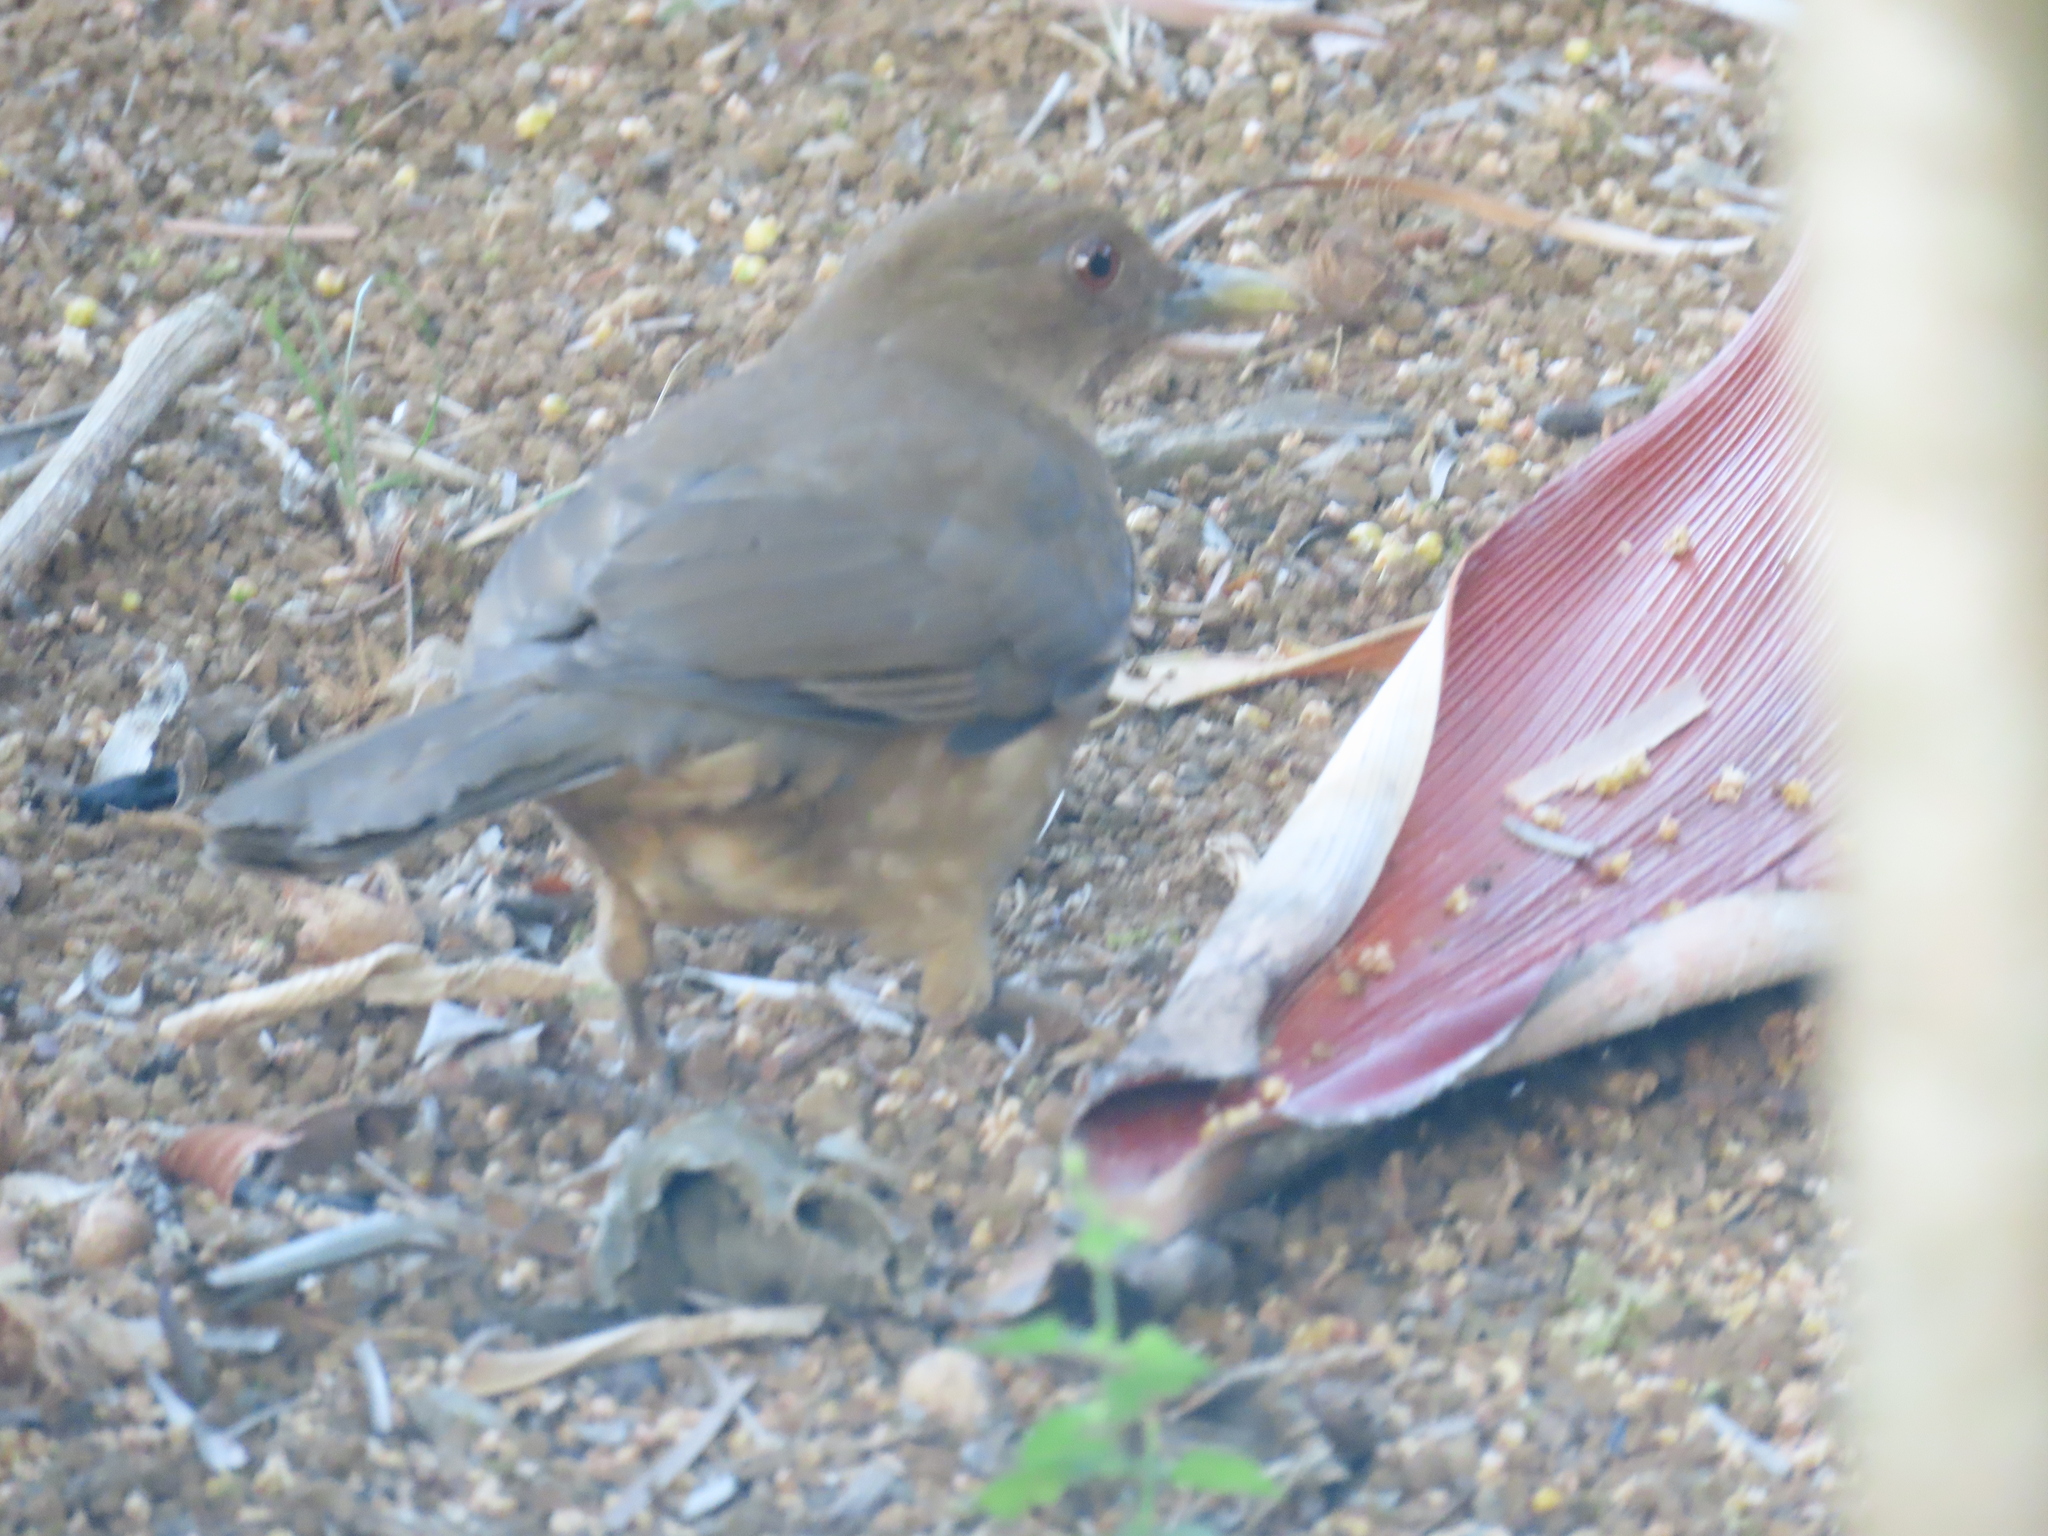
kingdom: Animalia
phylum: Chordata
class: Aves
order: Passeriformes
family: Turdidae
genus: Turdus
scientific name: Turdus grayi
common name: Clay-colored thrush
